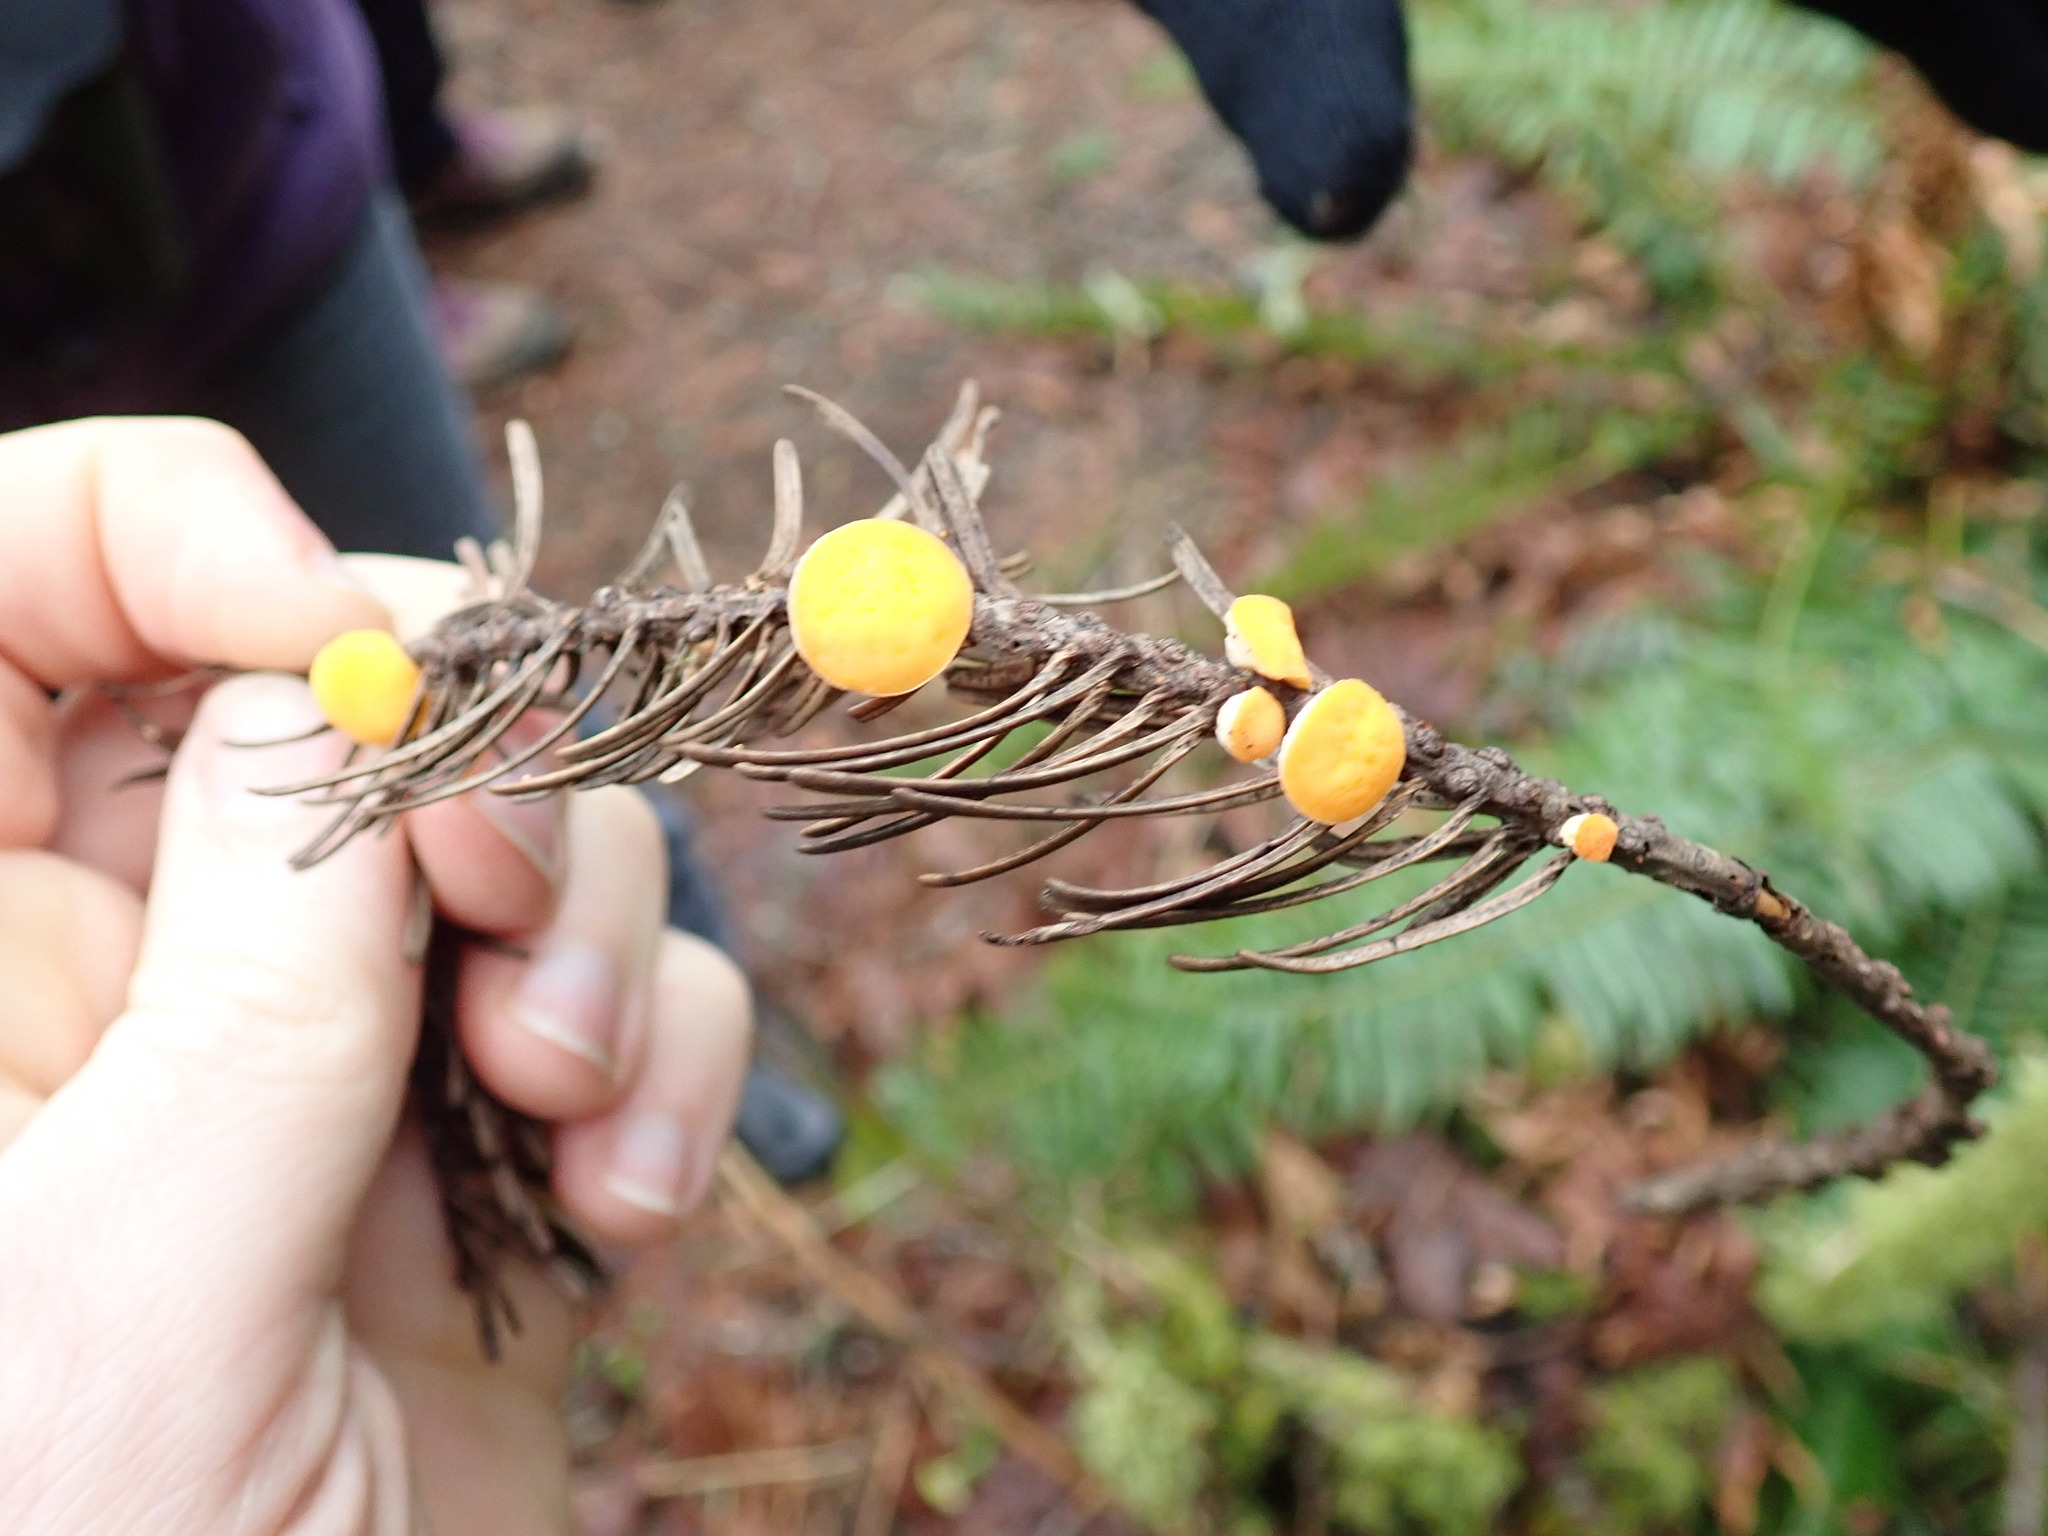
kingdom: Fungi
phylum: Ascomycota
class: Pezizomycetes
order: Pezizales
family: Sarcoscyphaceae
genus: Pithya
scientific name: Pithya vulgaris
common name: Fir disco
